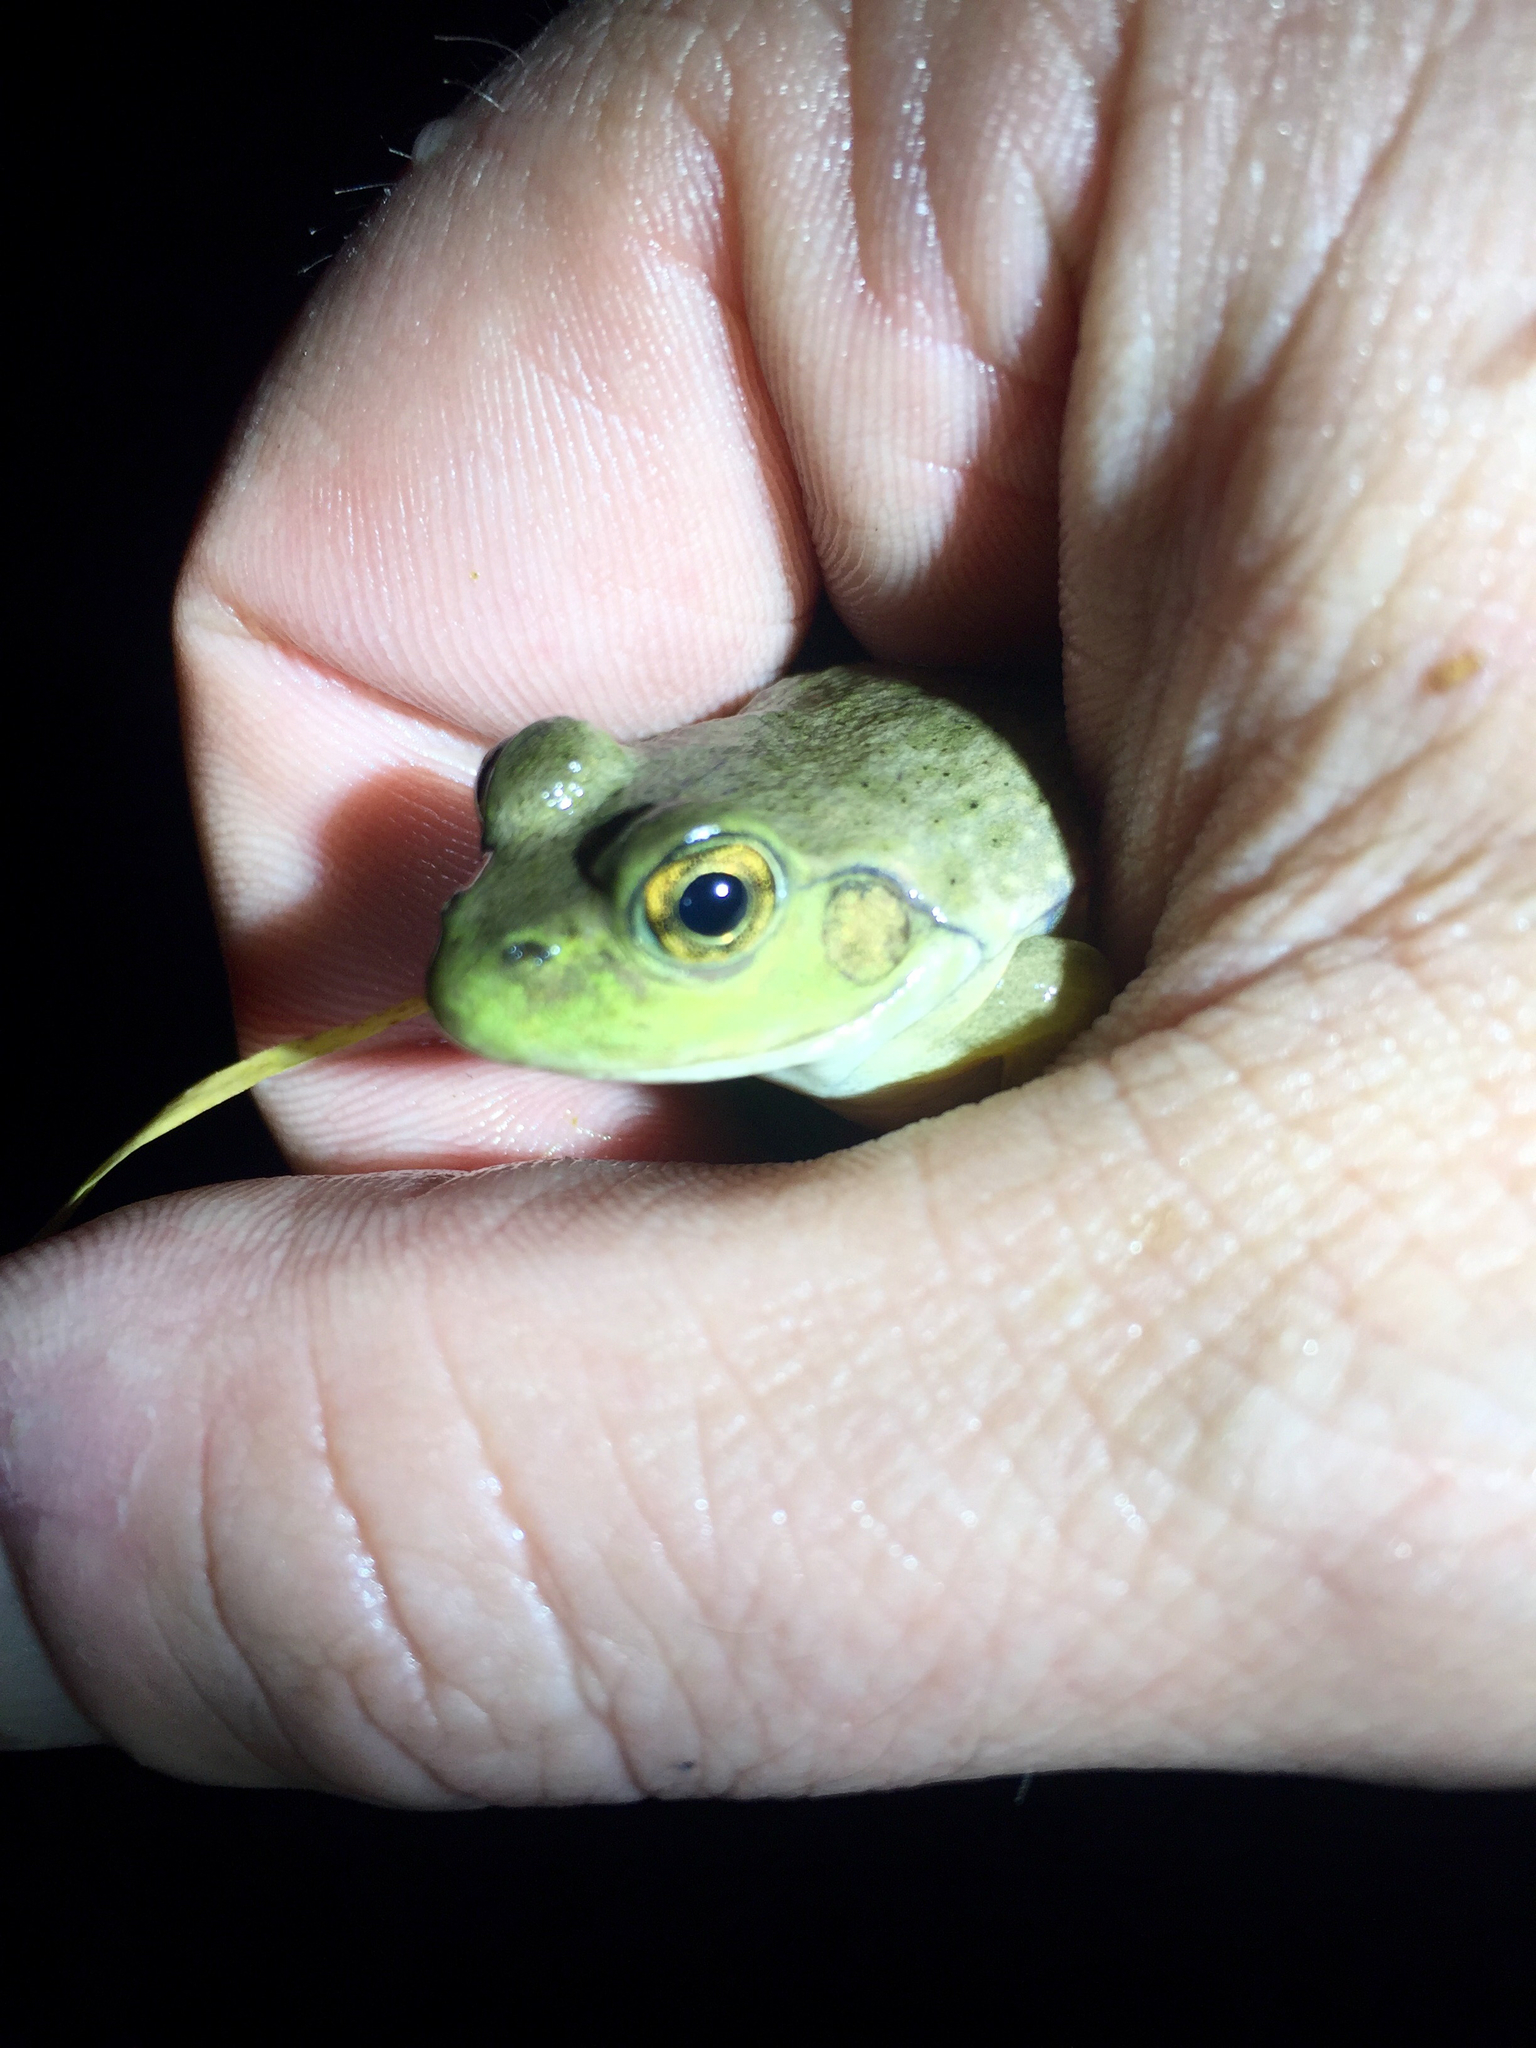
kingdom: Animalia
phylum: Chordata
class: Amphibia
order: Anura
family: Ranidae
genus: Lithobates
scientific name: Lithobates catesbeianus
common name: American bullfrog
